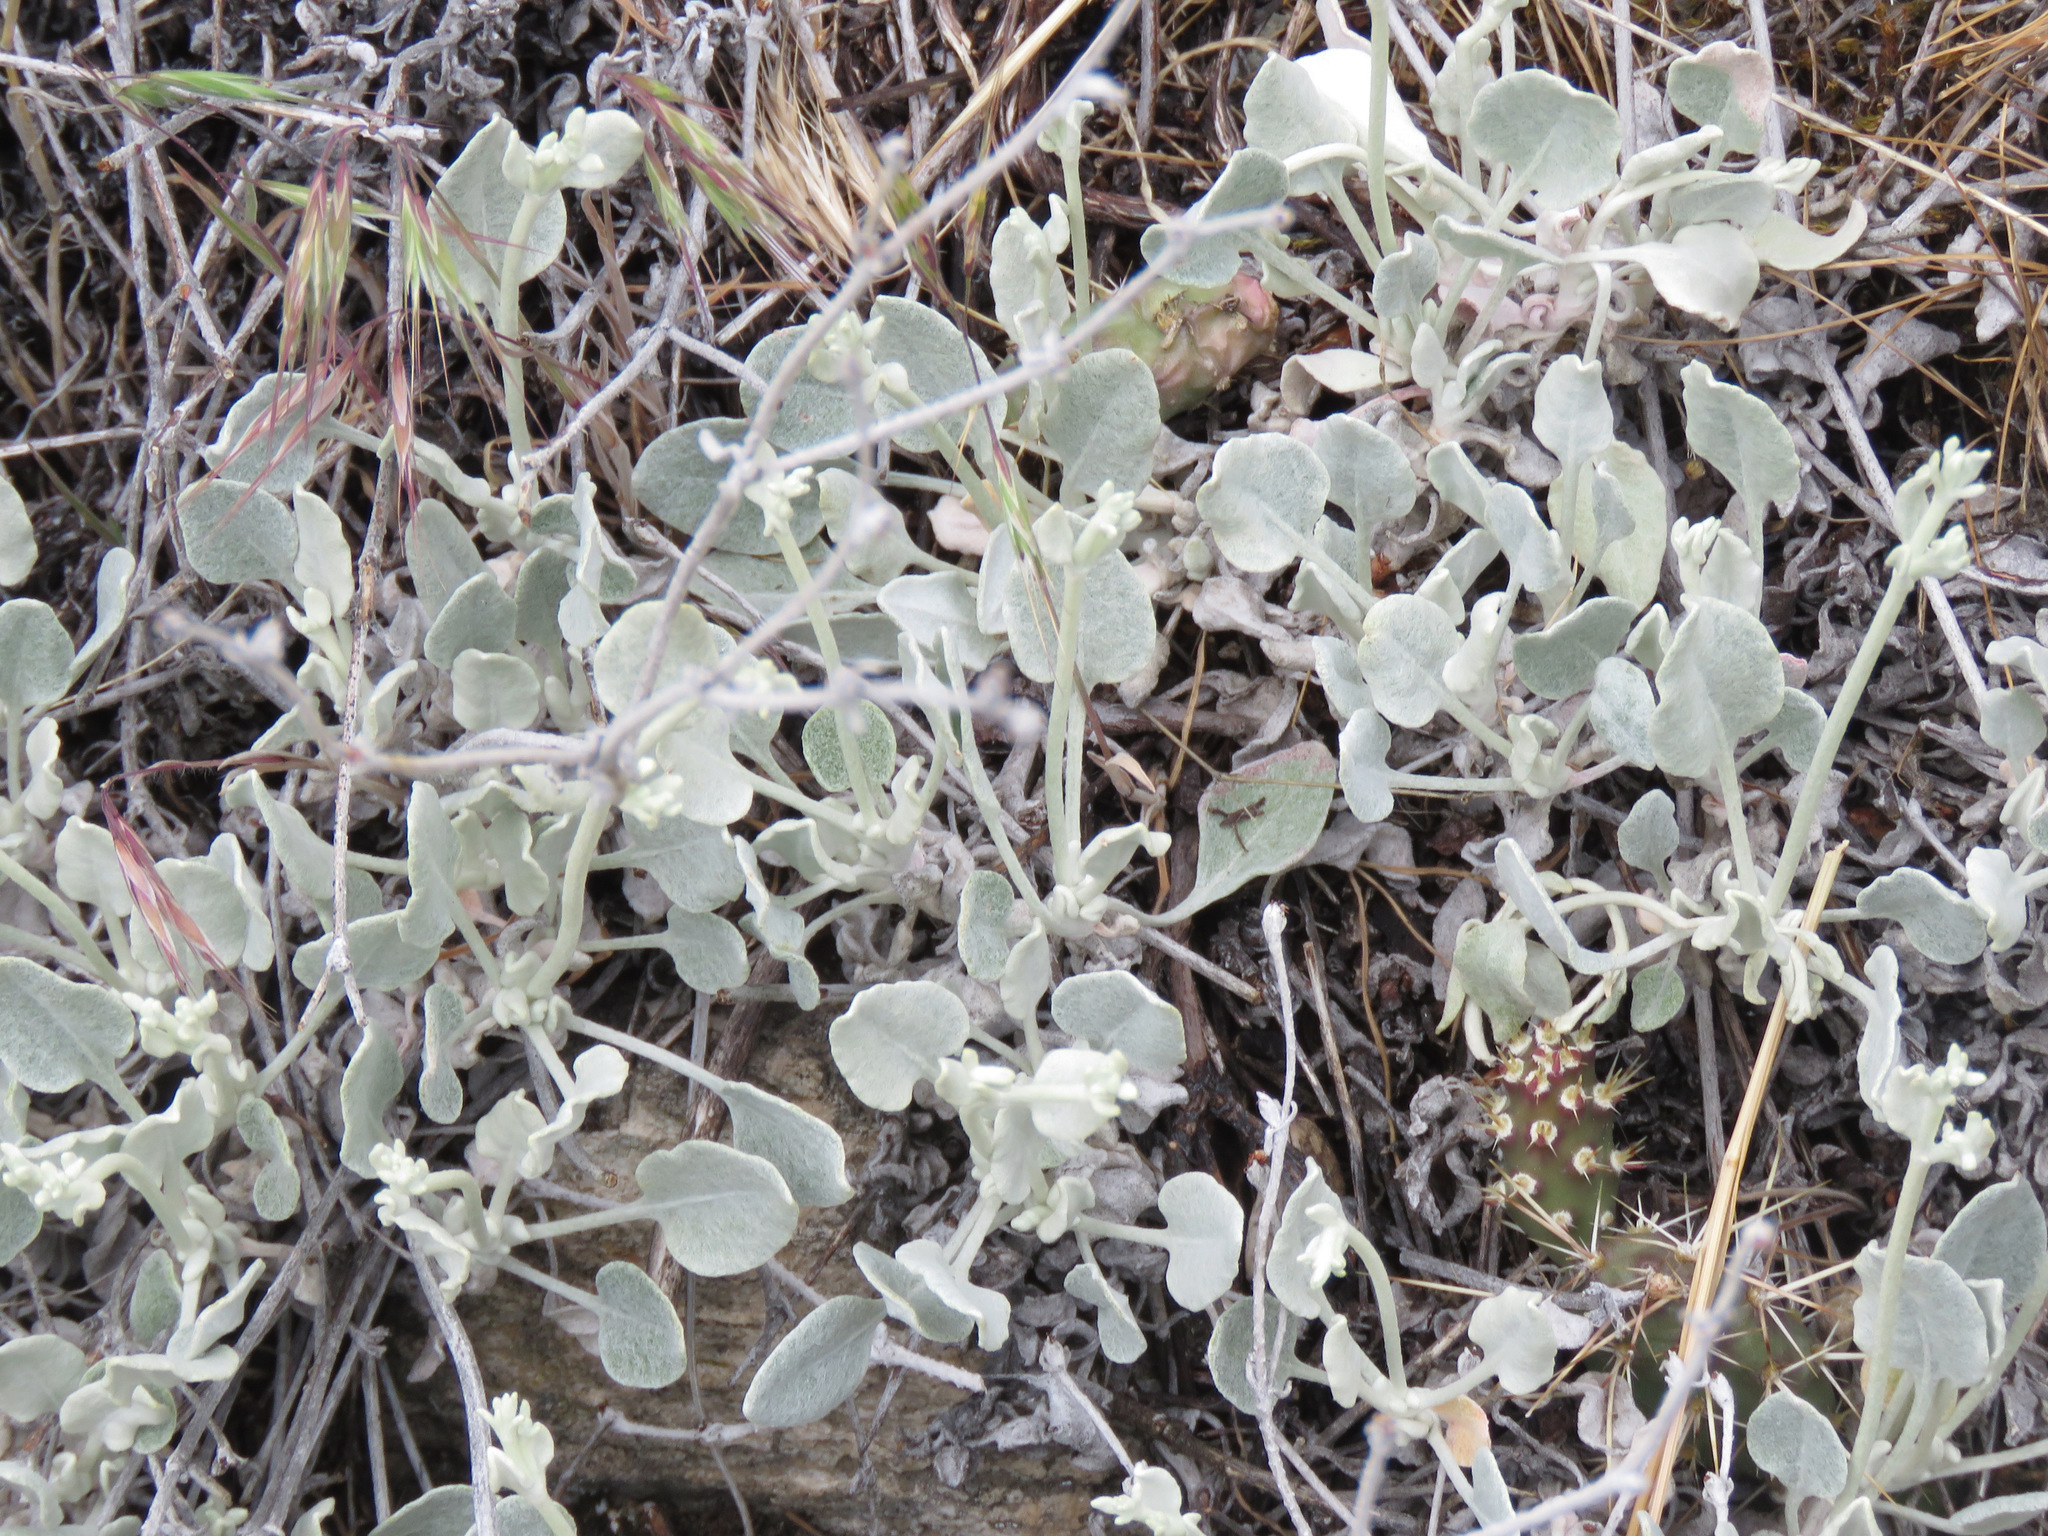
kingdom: Plantae
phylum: Tracheophyta
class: Magnoliopsida
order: Caryophyllales
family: Polygonaceae
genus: Eriogonum
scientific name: Eriogonum niveum
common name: Snow wild buckwheat
